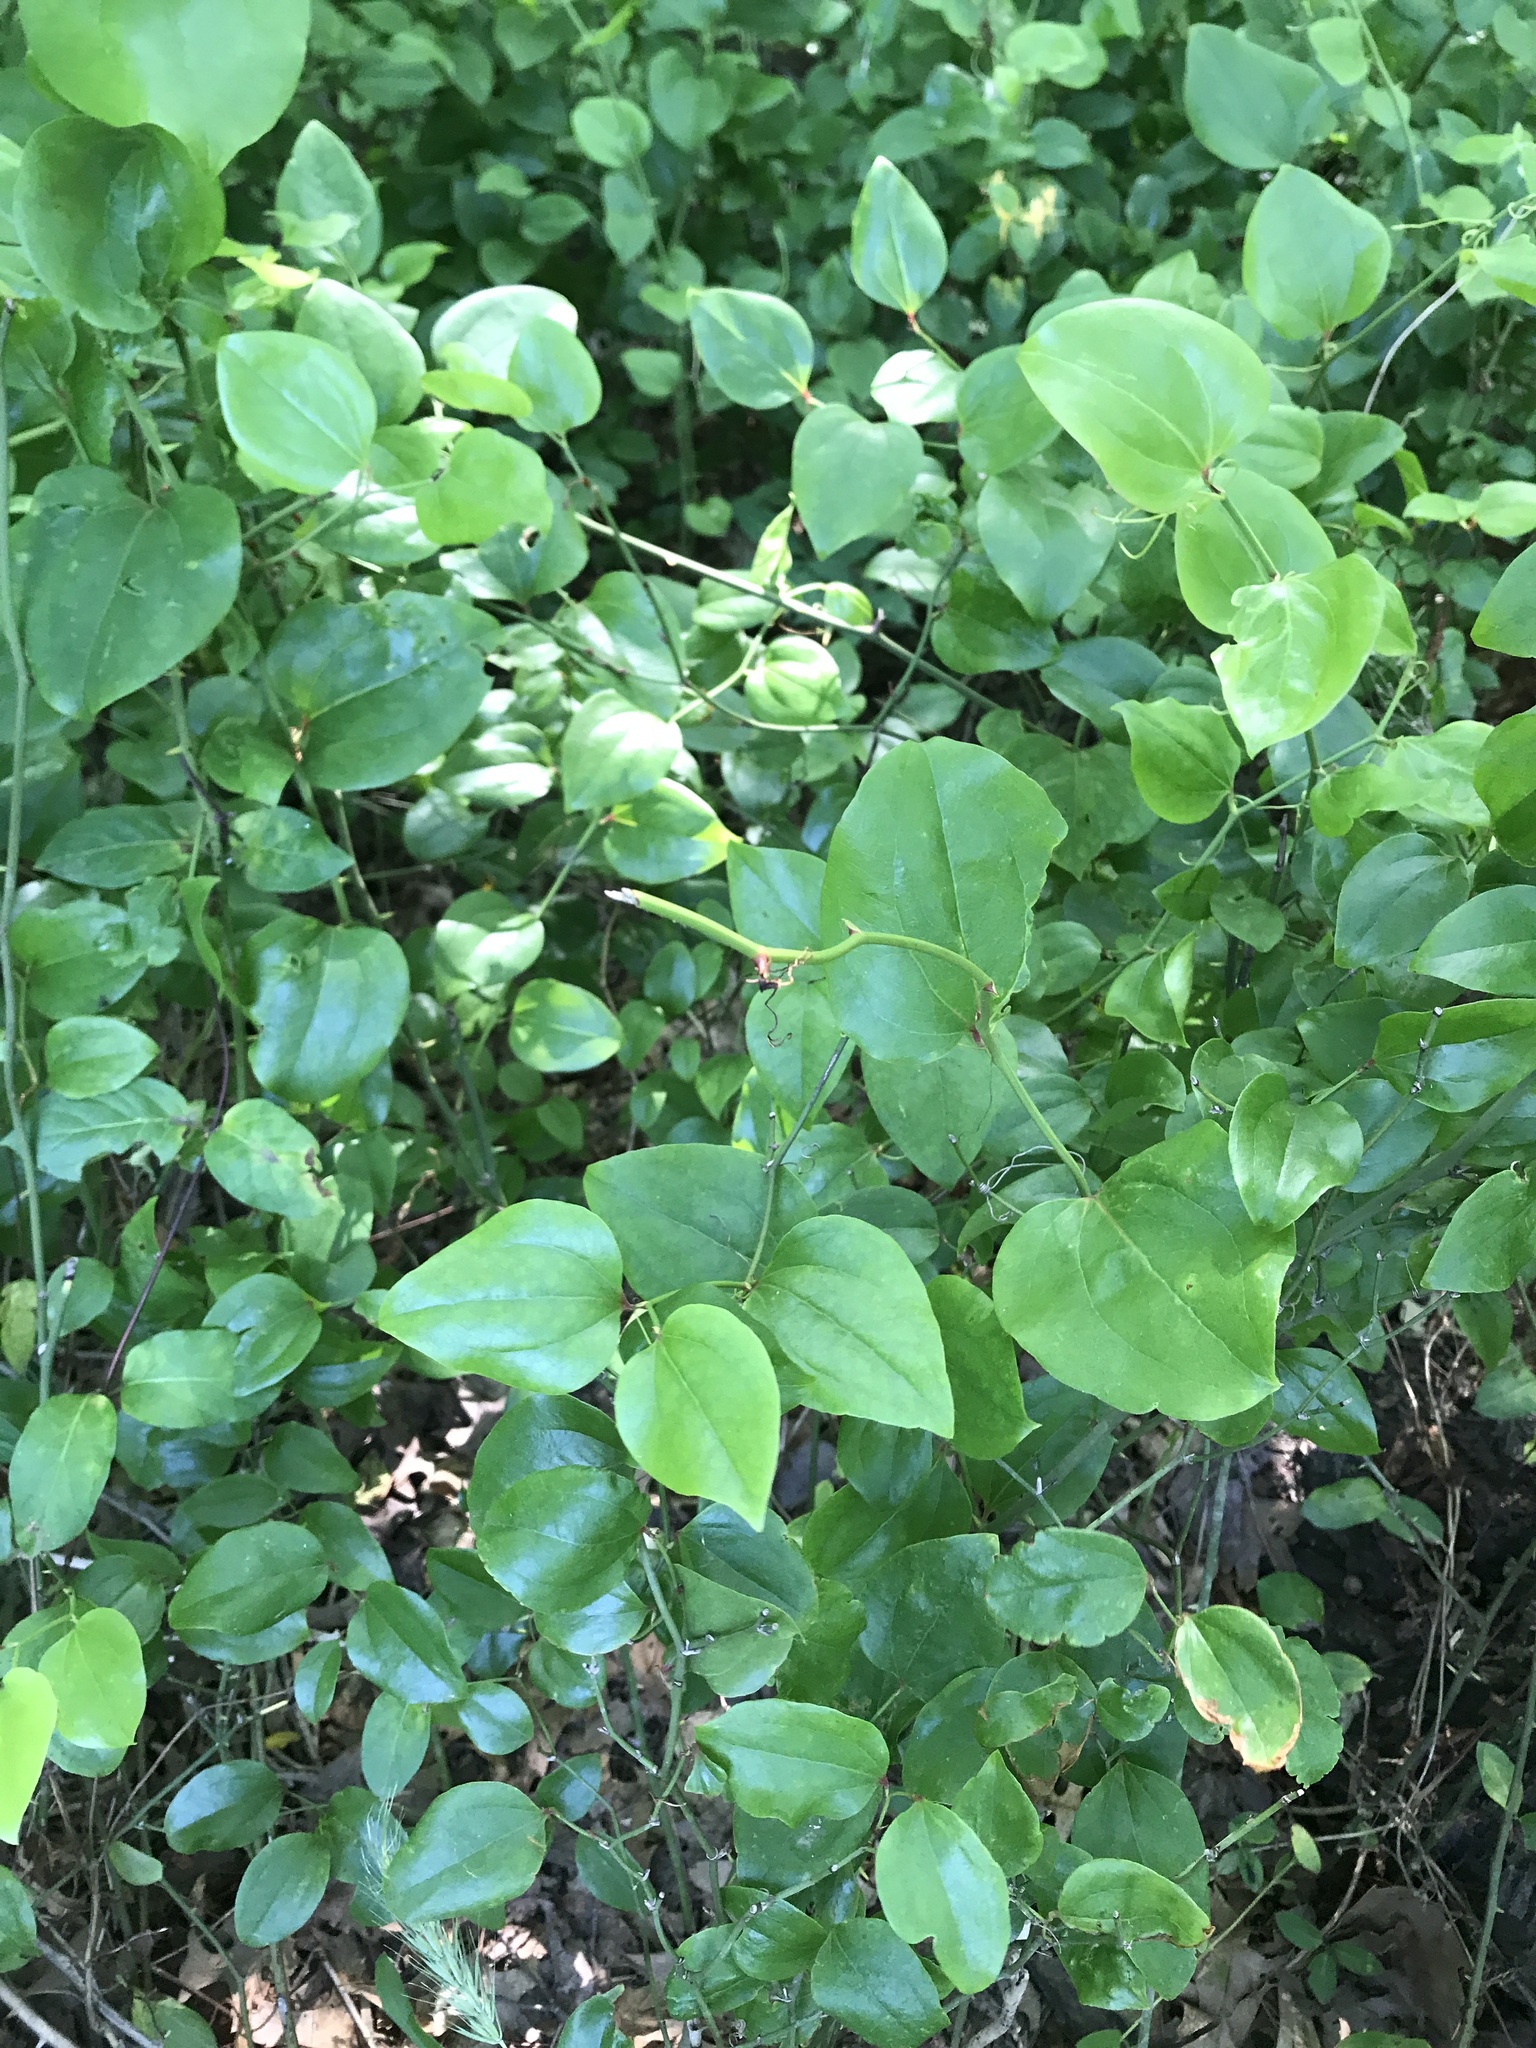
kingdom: Plantae
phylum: Tracheophyta
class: Liliopsida
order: Liliales
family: Smilacaceae
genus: Smilax
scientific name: Smilax
